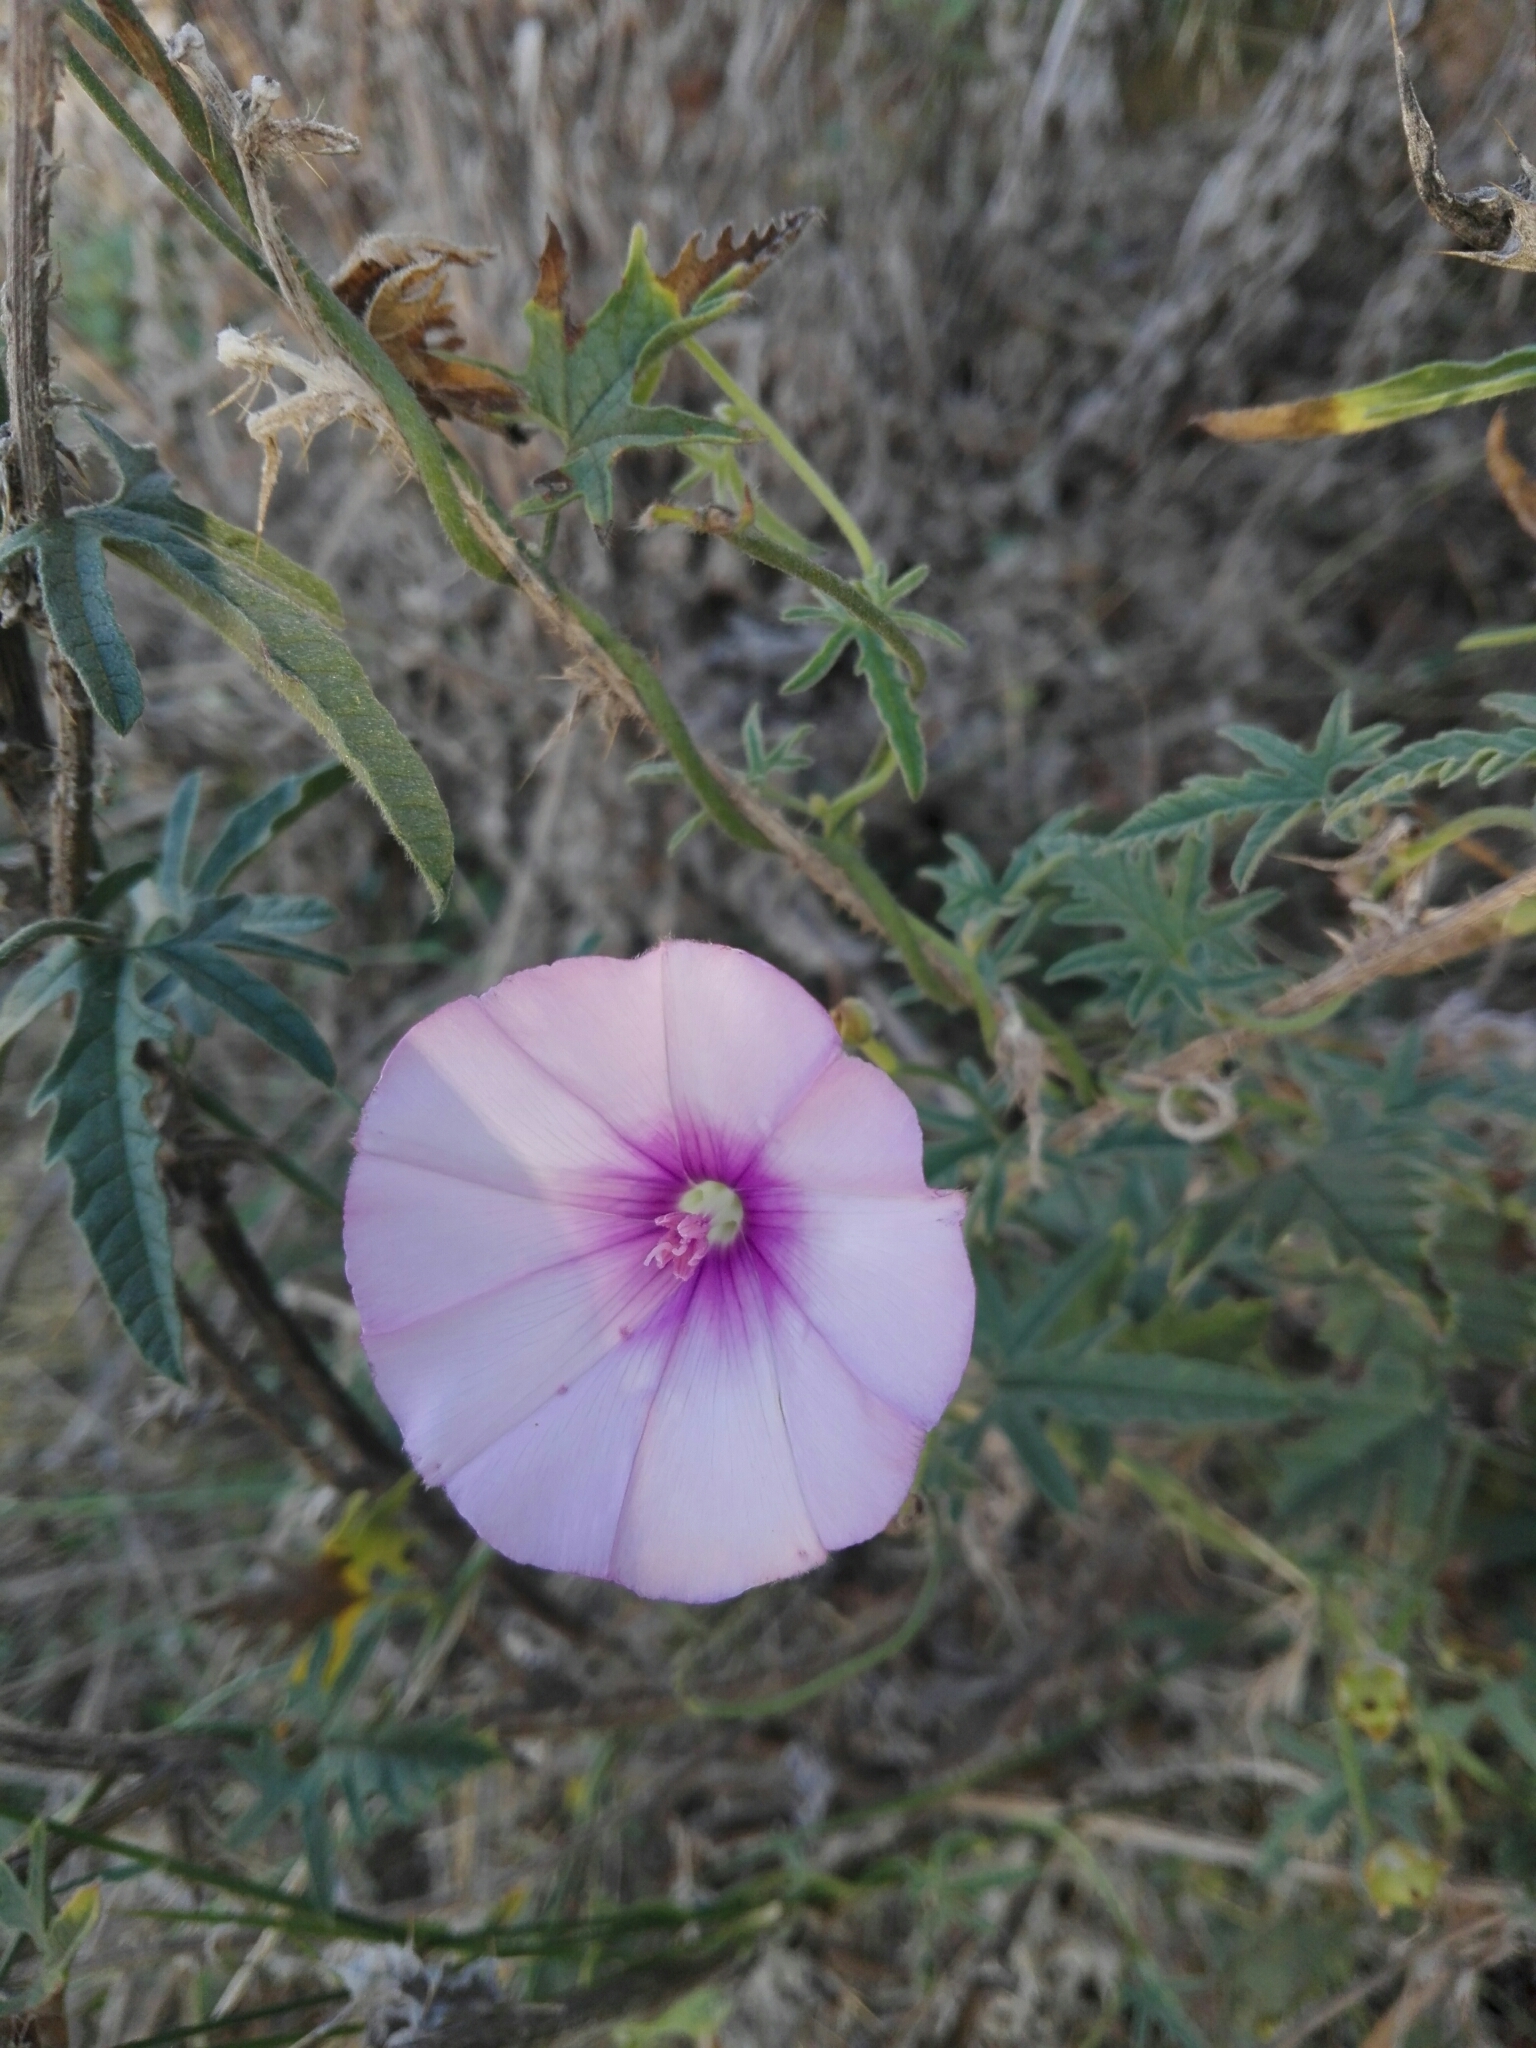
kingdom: Plantae
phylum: Tracheophyta
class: Magnoliopsida
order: Solanales
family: Convolvulaceae
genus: Convolvulus
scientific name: Convolvulus althaeoides
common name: Mallow bindweed
